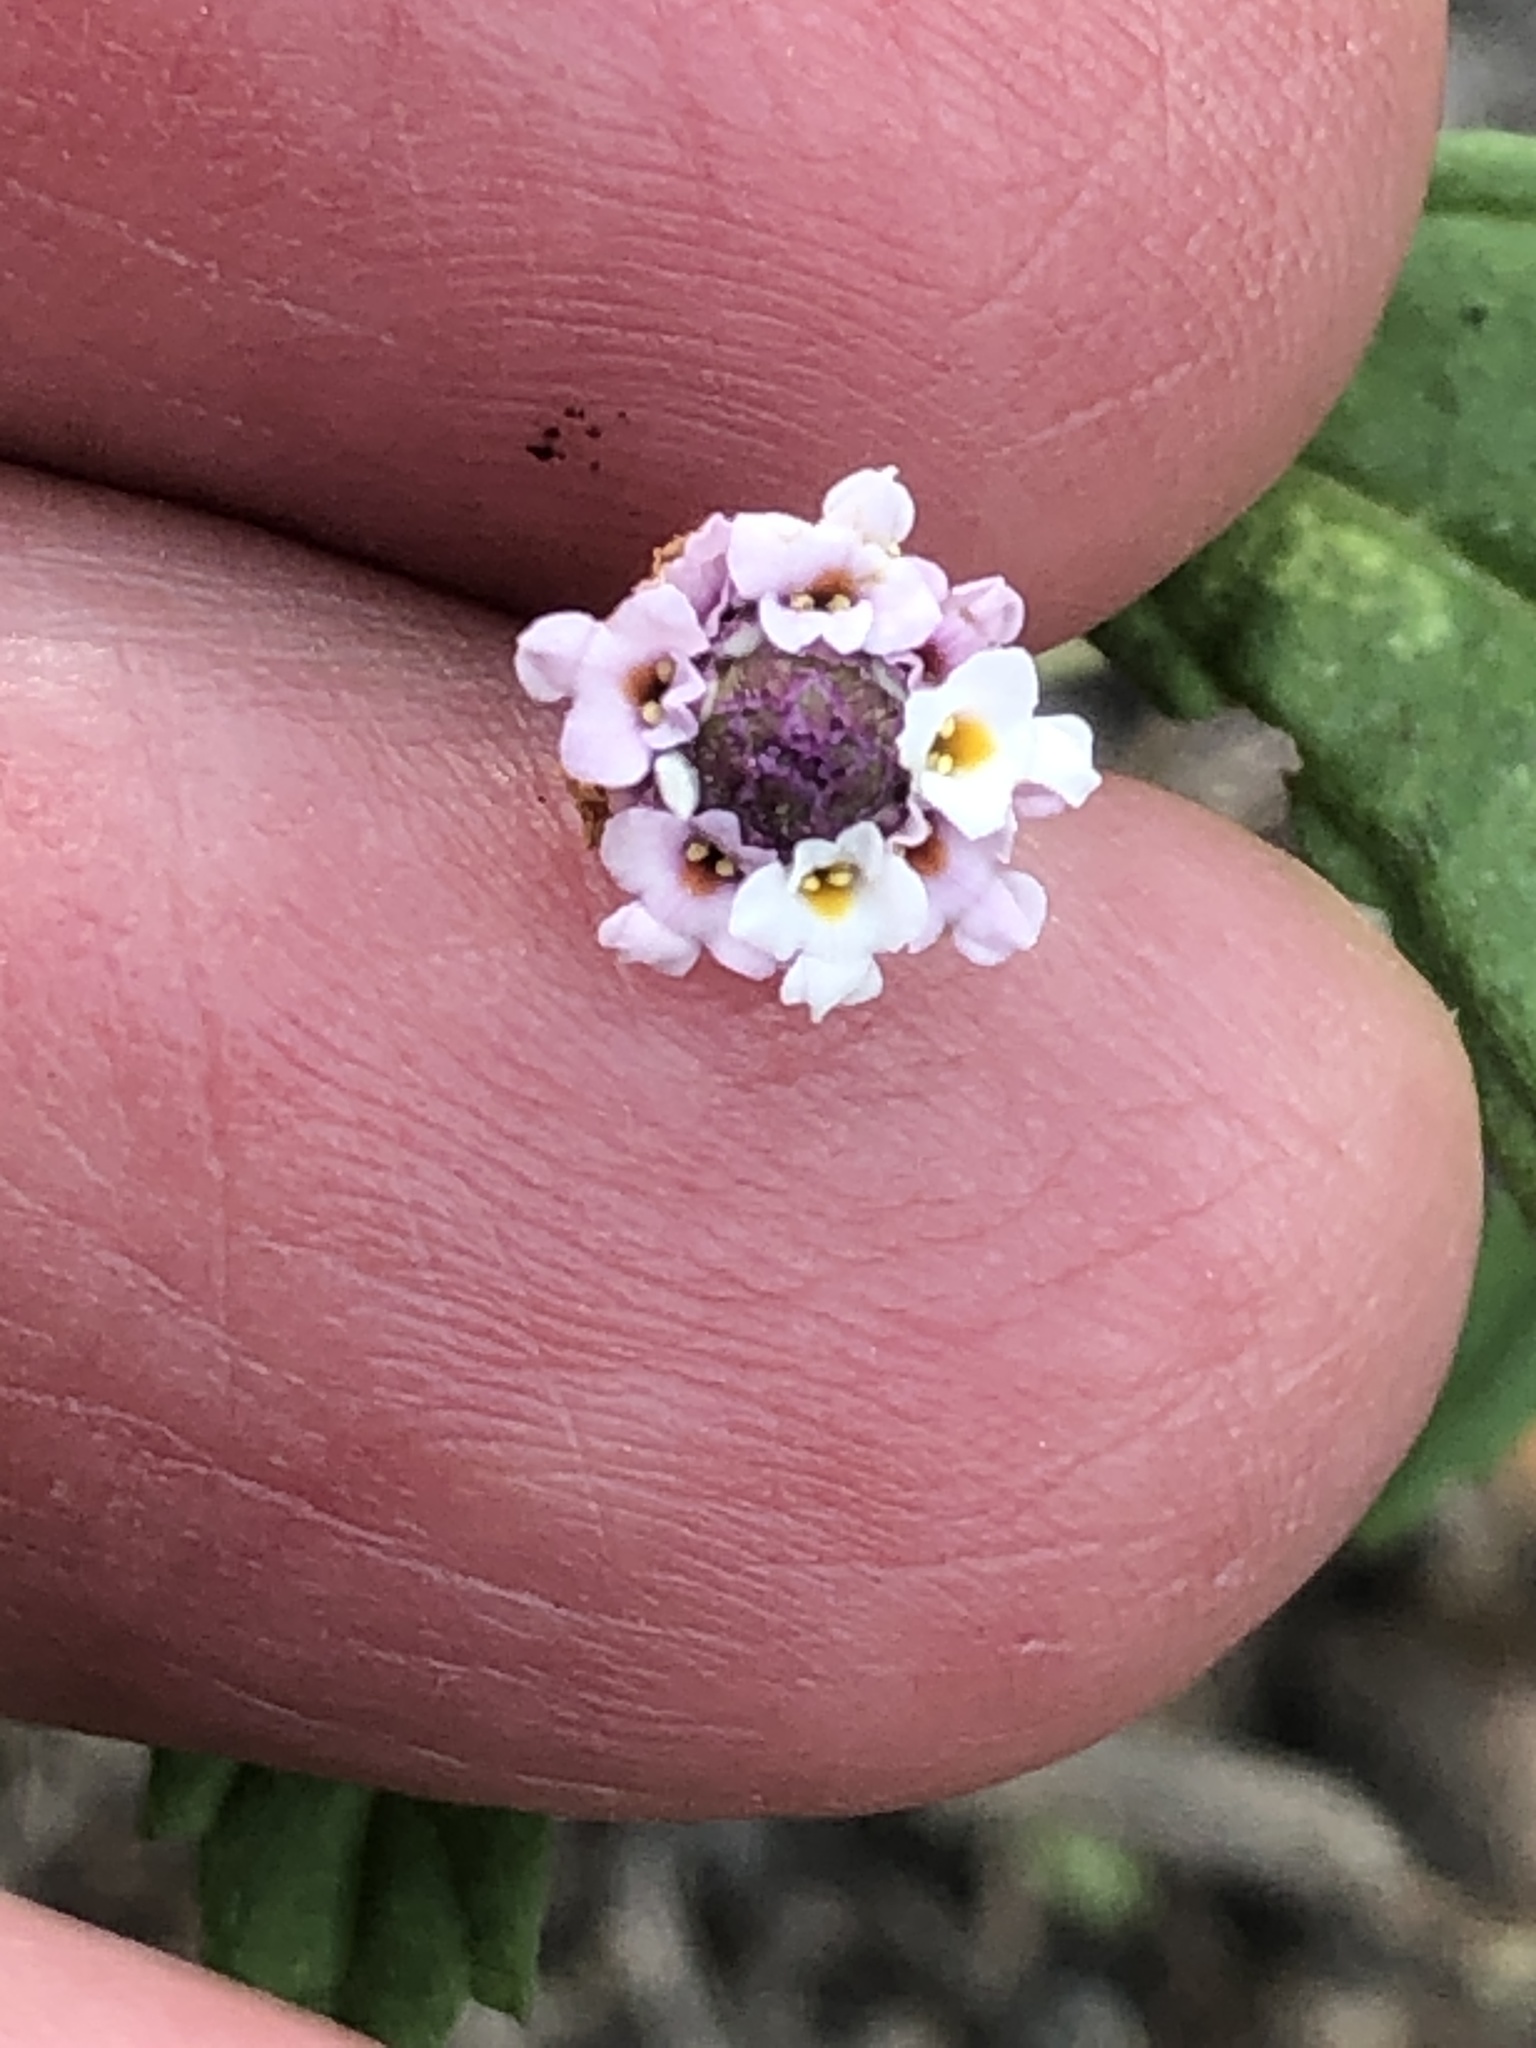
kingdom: Plantae
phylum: Tracheophyta
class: Magnoliopsida
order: Lamiales
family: Verbenaceae
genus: Phyla
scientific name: Phyla lanceolata
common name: Northern fogfruit
